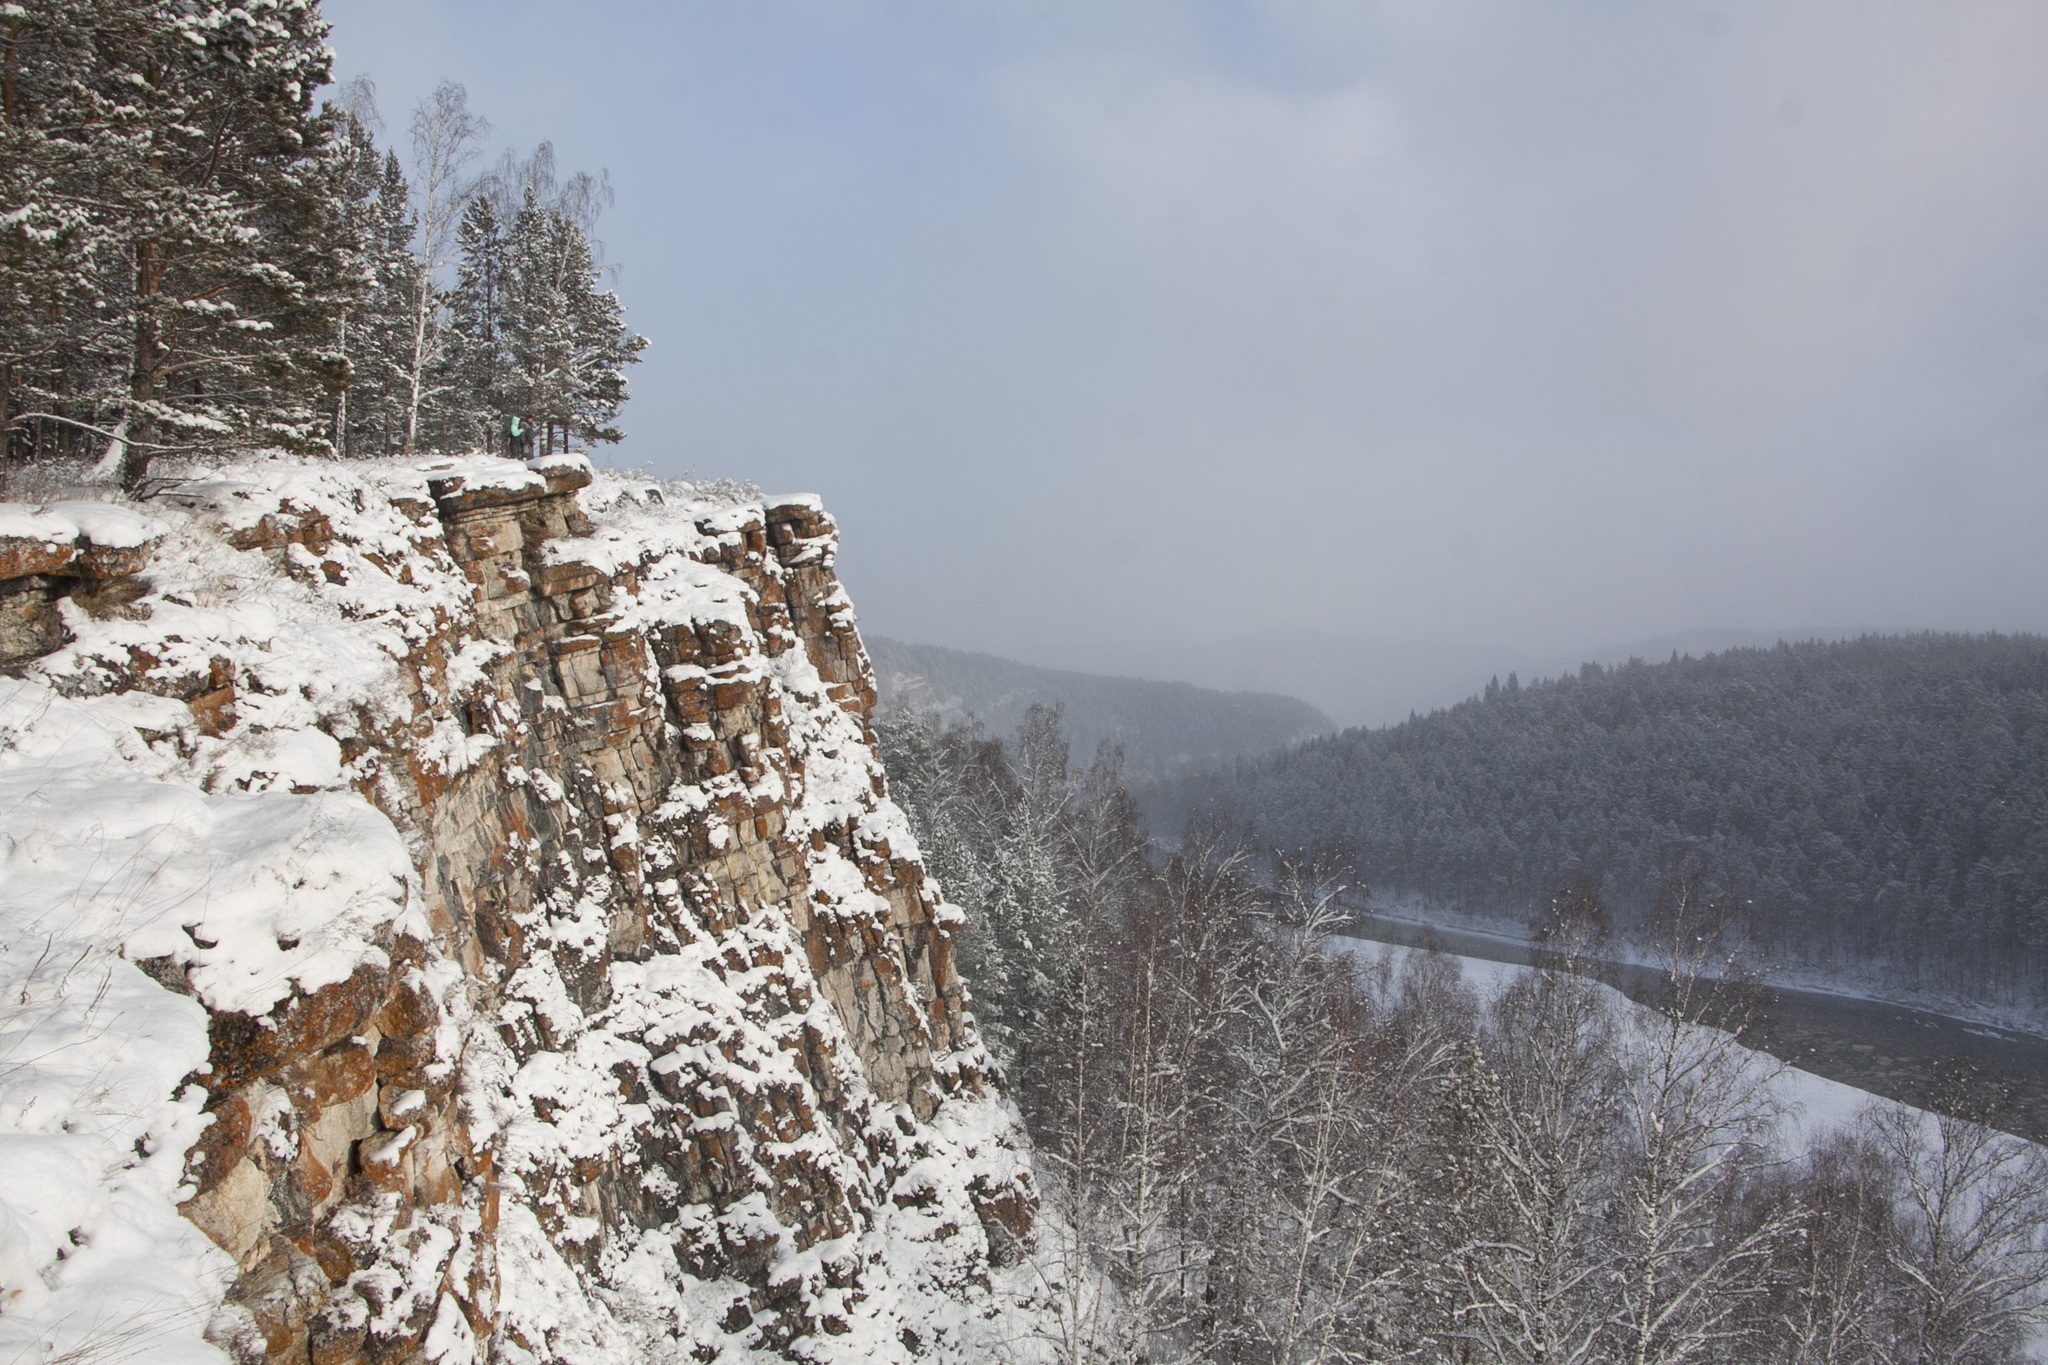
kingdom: Plantae
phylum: Tracheophyta
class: Pinopsida
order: Pinales
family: Pinaceae
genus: Pinus
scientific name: Pinus sylvestris
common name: Scots pine
